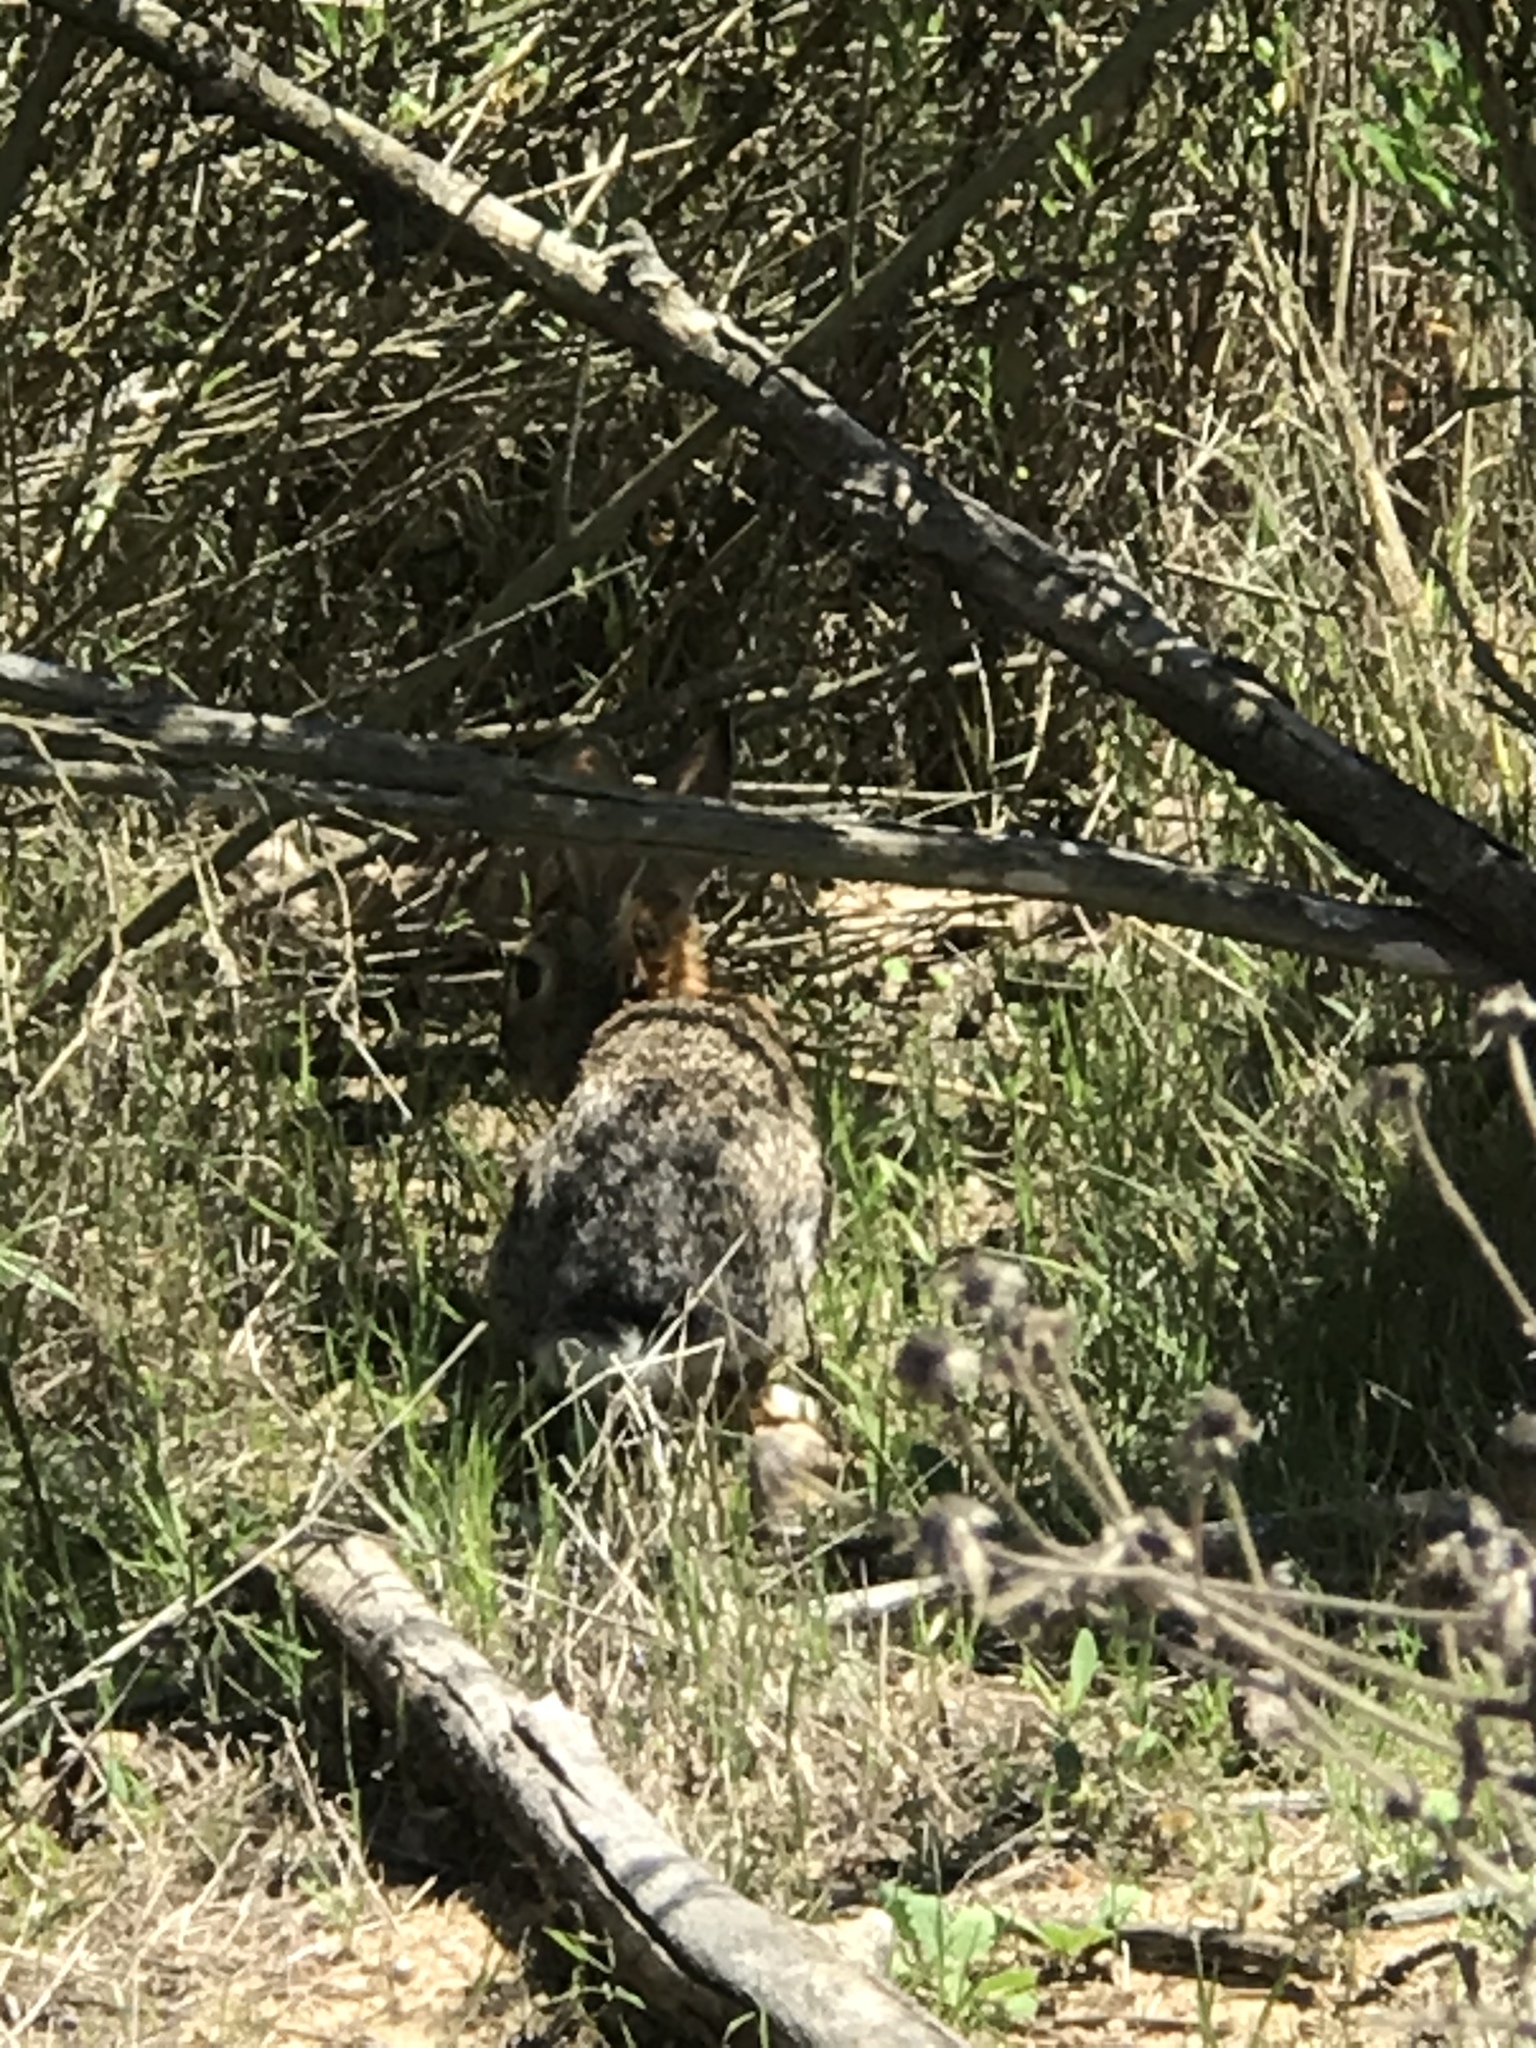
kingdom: Animalia
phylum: Chordata
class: Mammalia
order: Lagomorpha
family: Leporidae
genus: Sylvilagus
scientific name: Sylvilagus audubonii
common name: Desert cottontail
